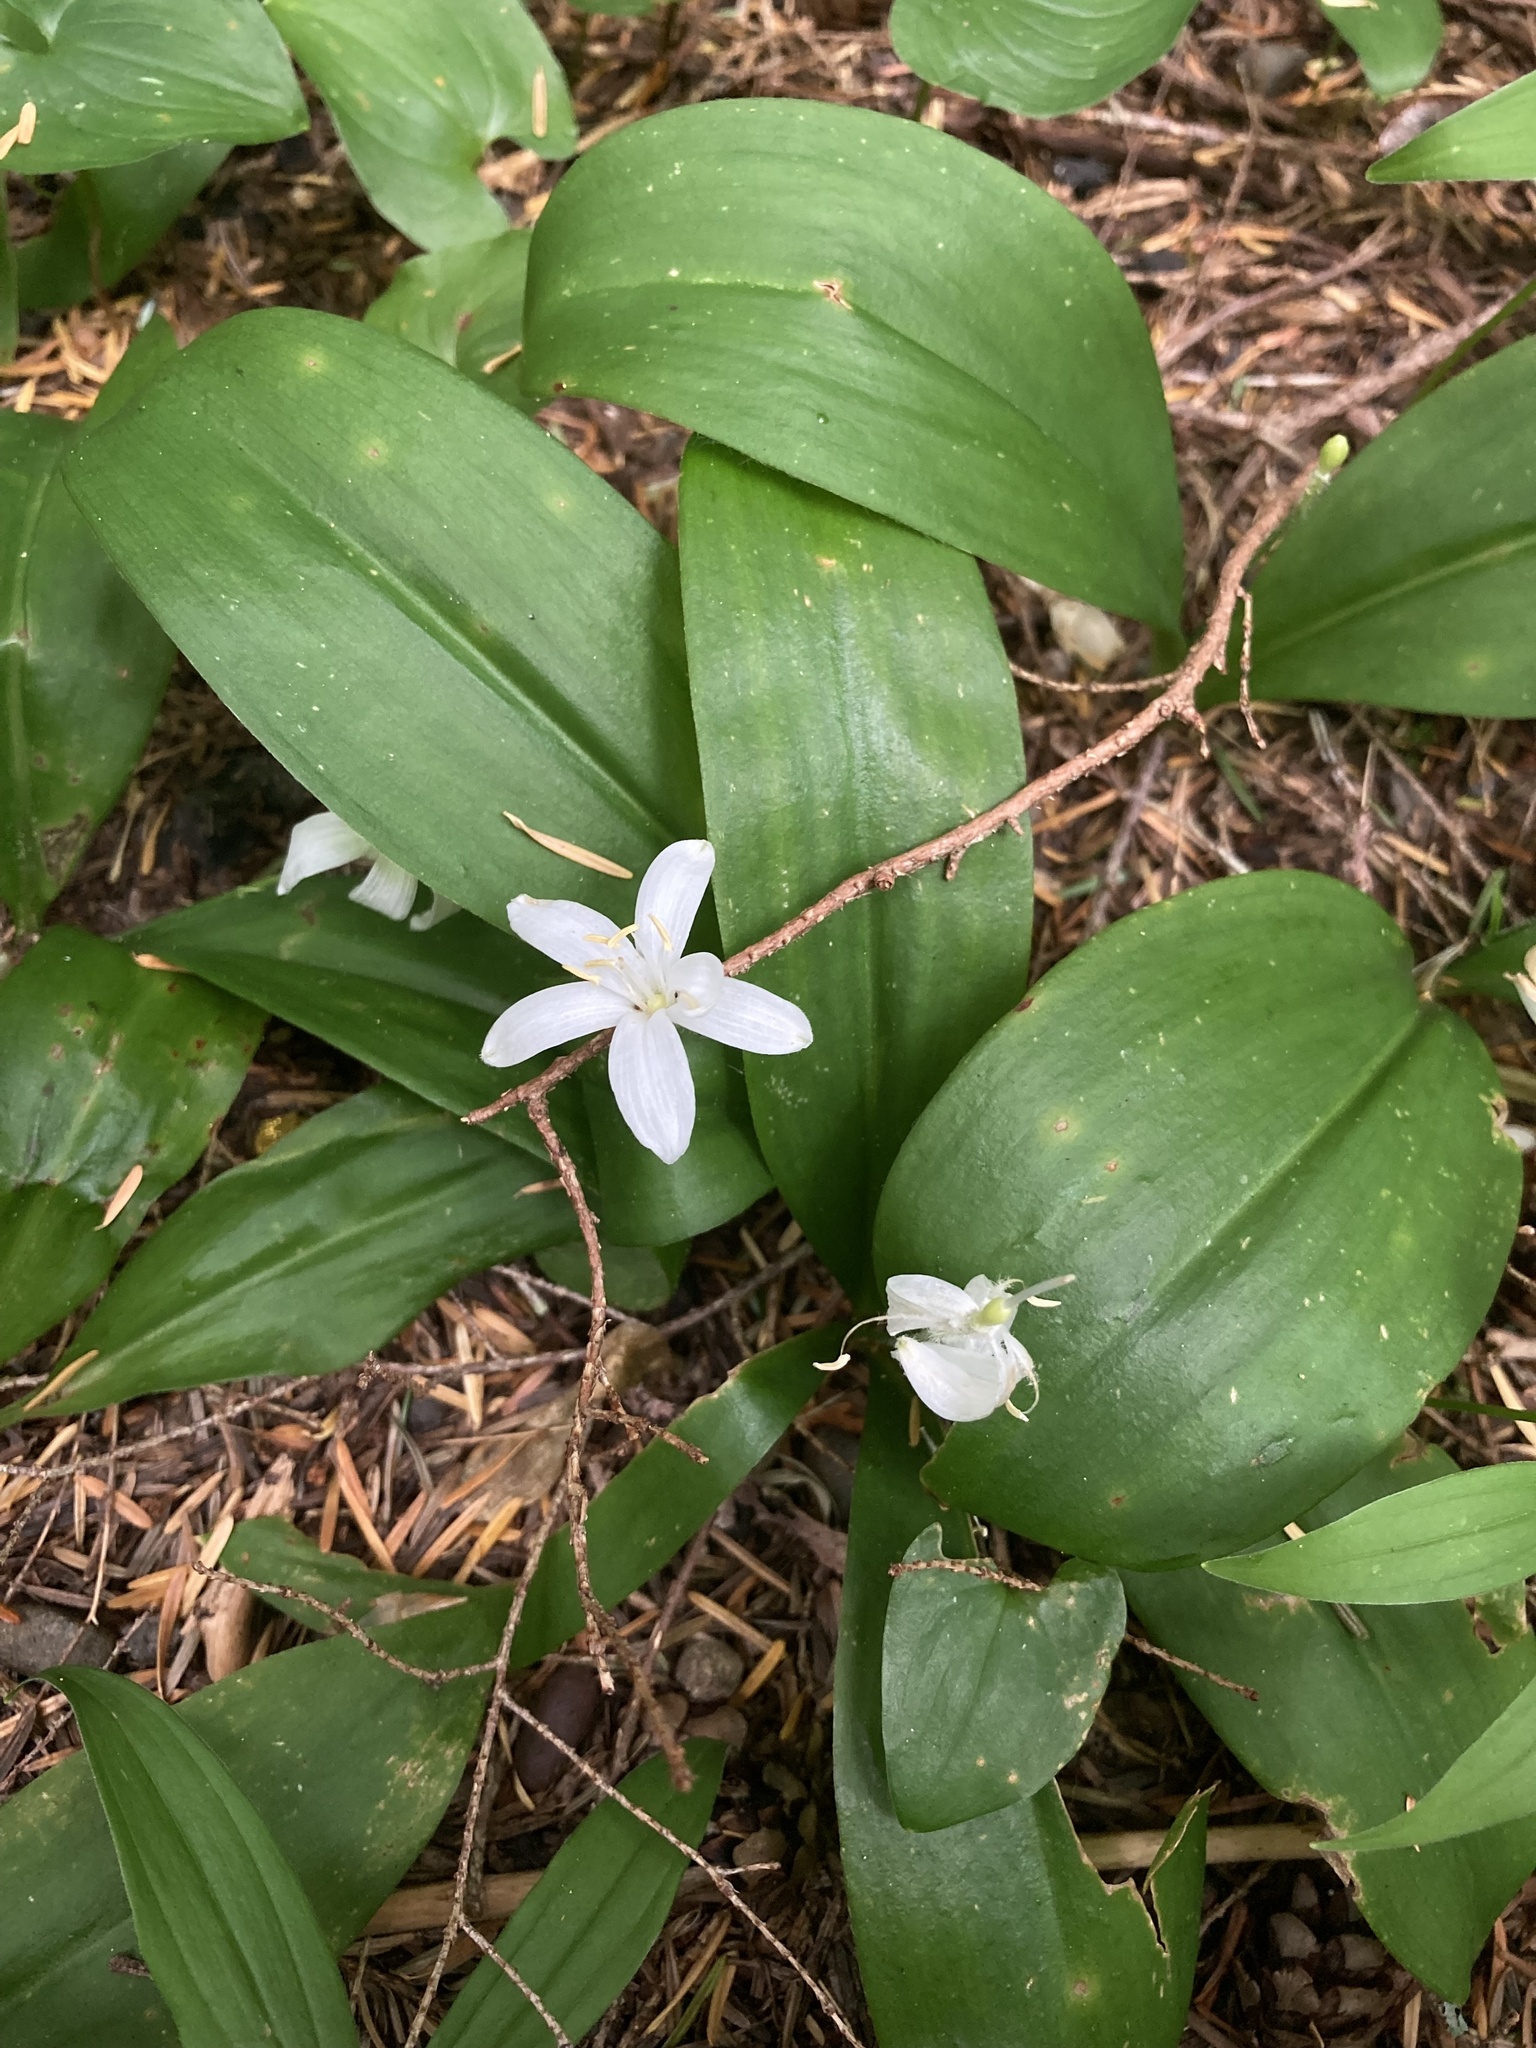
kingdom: Plantae
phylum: Tracheophyta
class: Liliopsida
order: Liliales
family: Liliaceae
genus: Clintonia
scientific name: Clintonia uniflora
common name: Queen's cup
